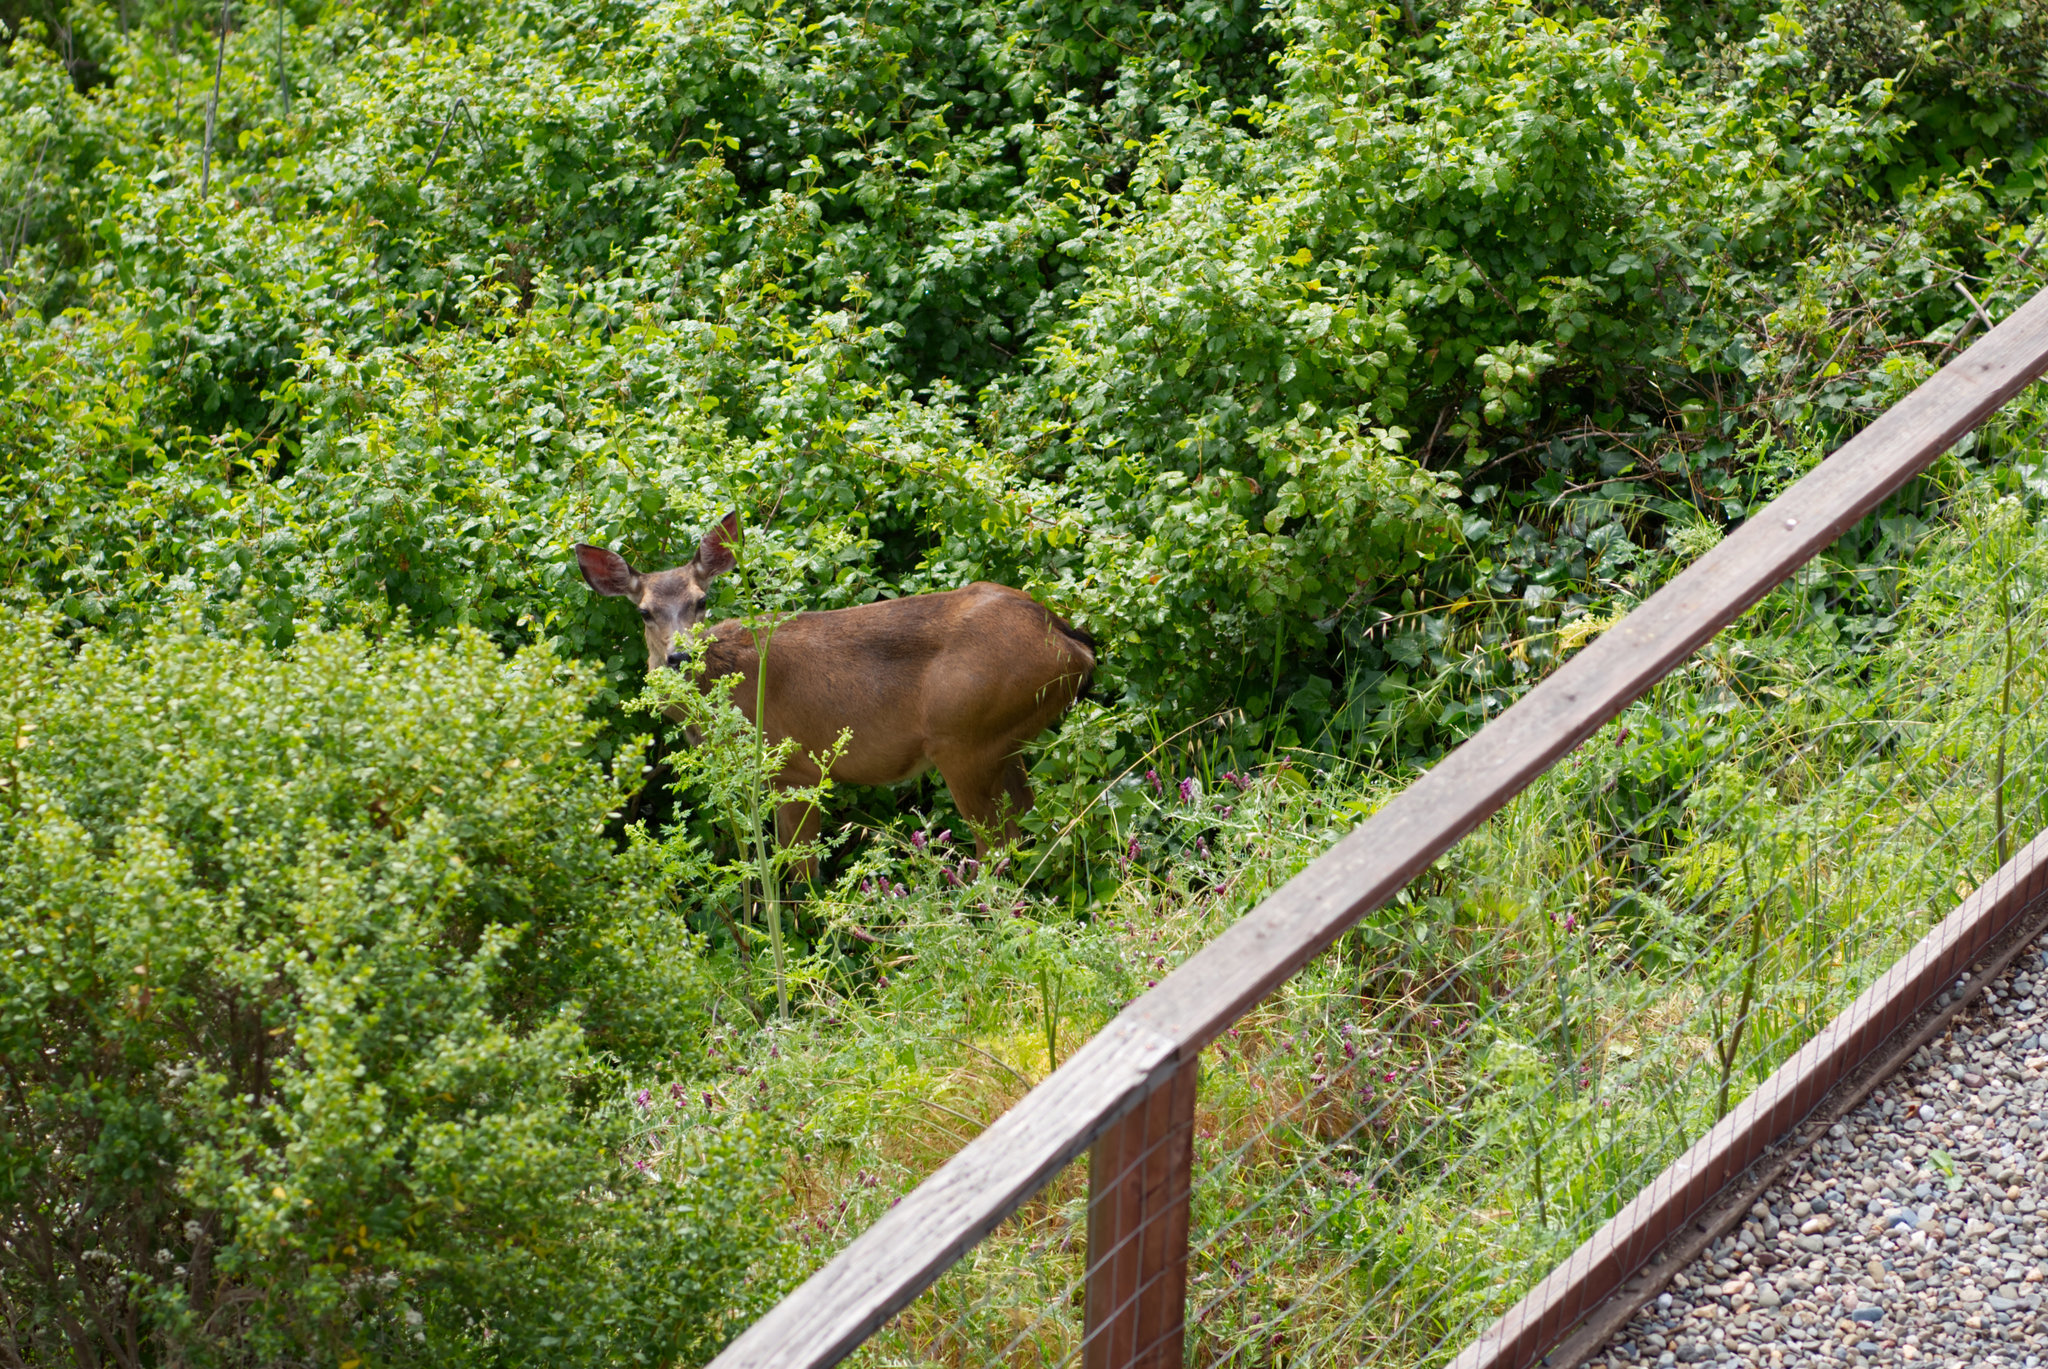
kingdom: Animalia
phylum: Chordata
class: Mammalia
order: Artiodactyla
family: Cervidae
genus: Odocoileus
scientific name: Odocoileus hemionus
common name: Mule deer
